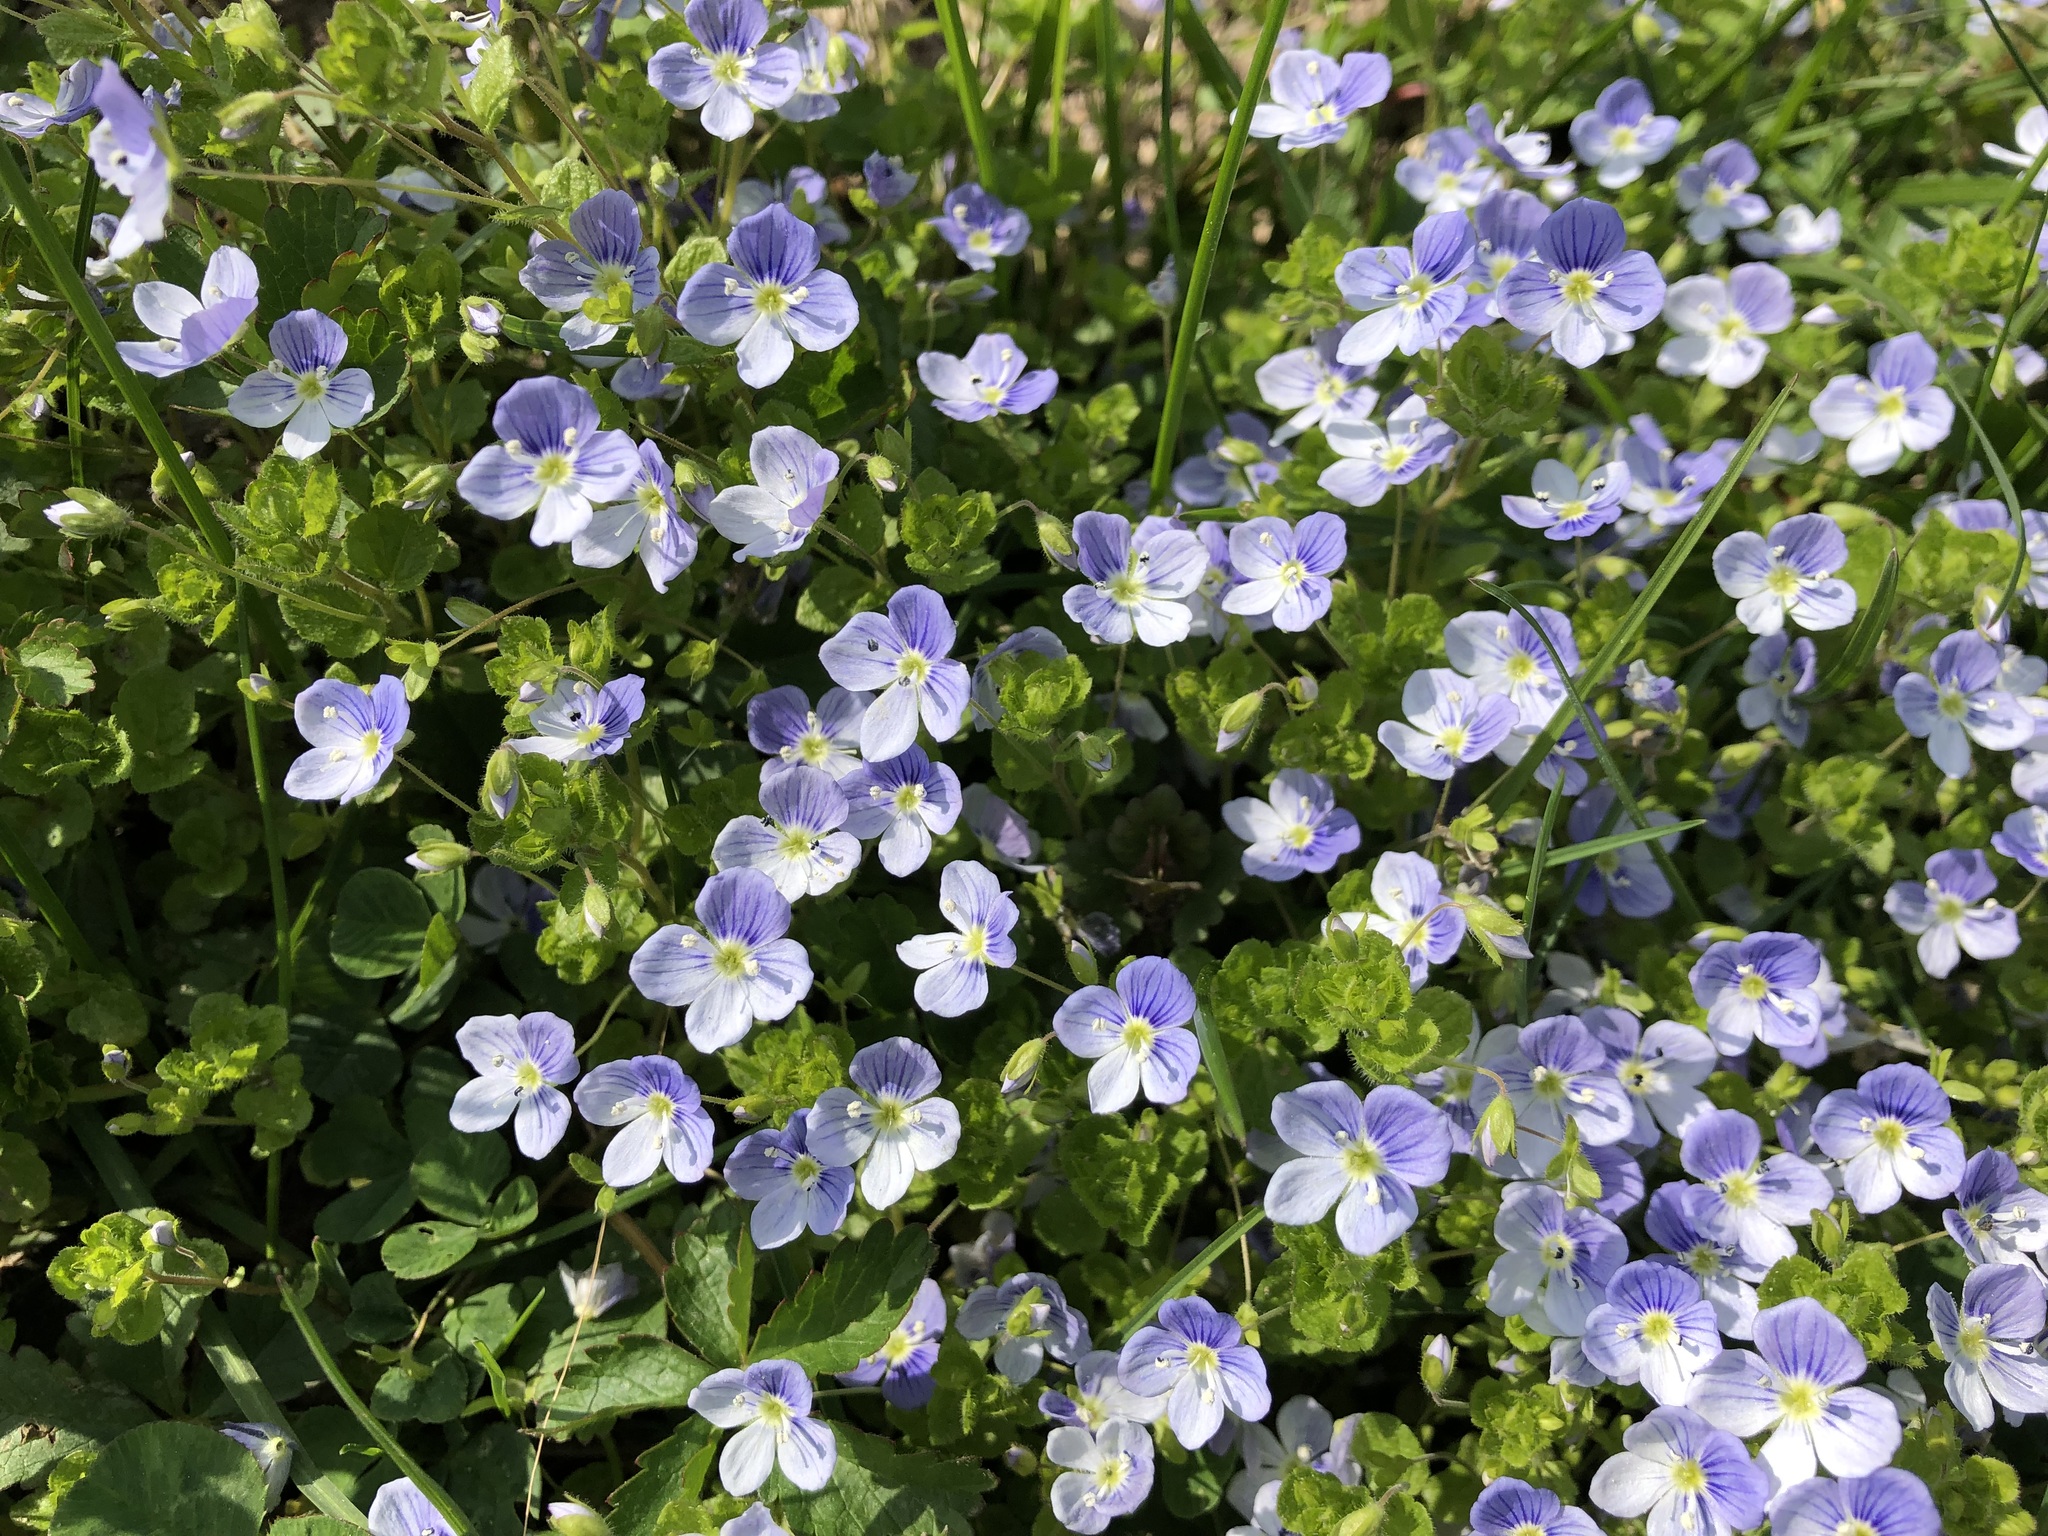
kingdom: Plantae
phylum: Tracheophyta
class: Magnoliopsida
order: Lamiales
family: Plantaginaceae
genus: Veronica
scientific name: Veronica filiformis
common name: Slender speedwell
